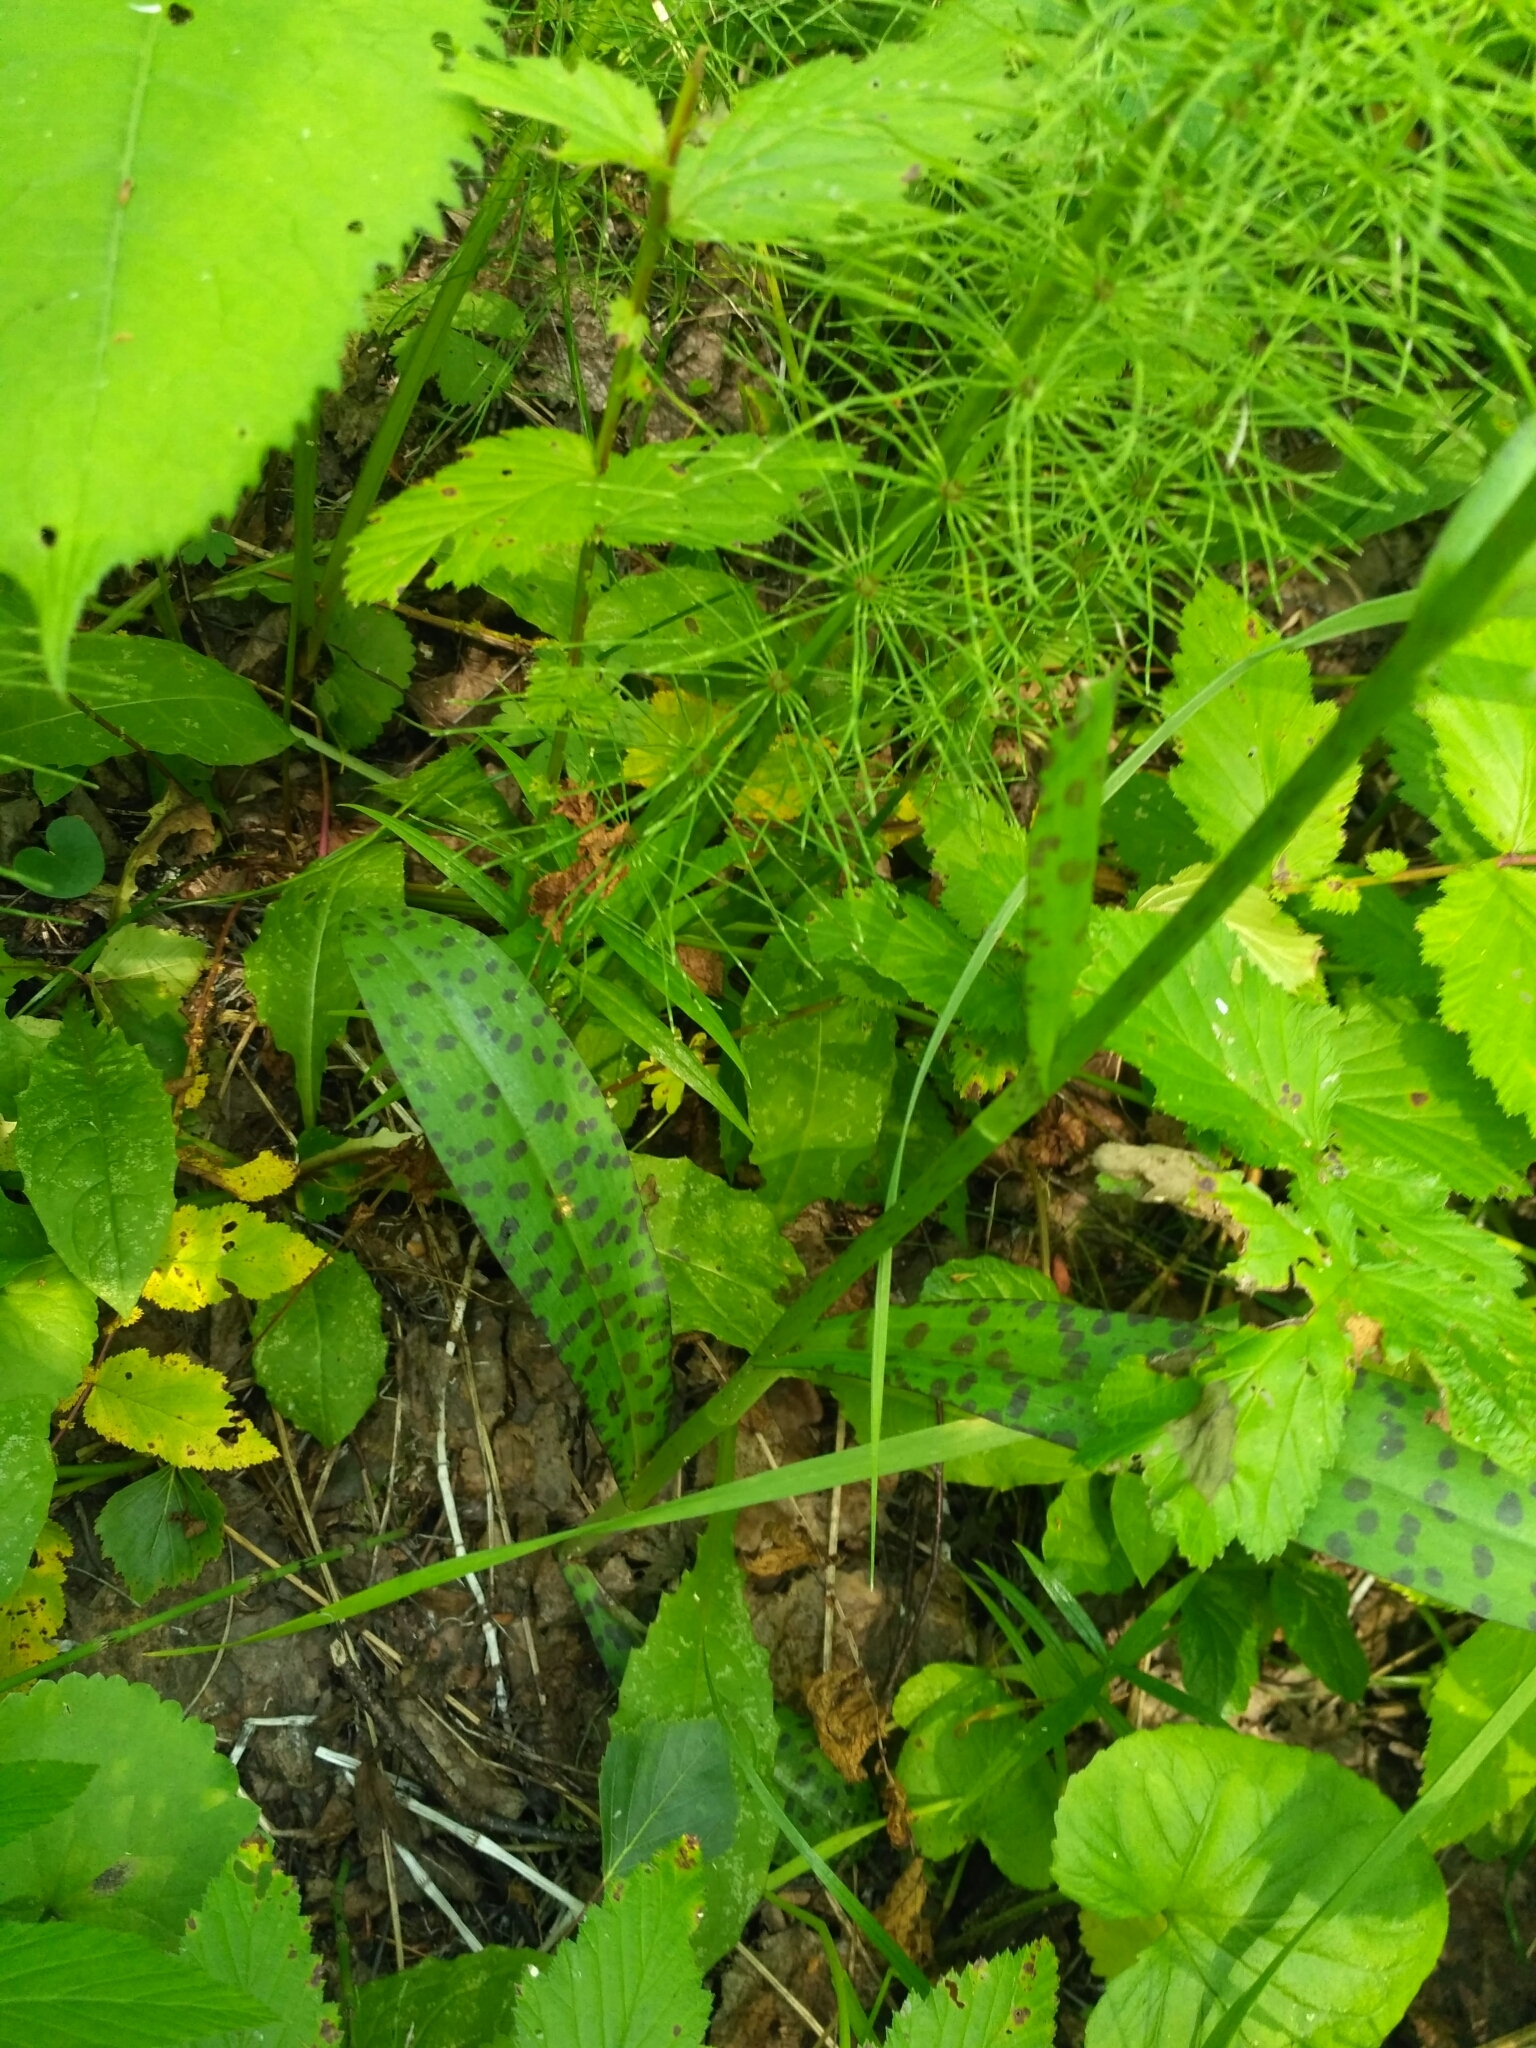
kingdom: Plantae
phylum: Tracheophyta
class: Liliopsida
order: Asparagales
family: Orchidaceae
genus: Dactylorhiza
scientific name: Dactylorhiza maculata
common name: Heath spotted-orchid
